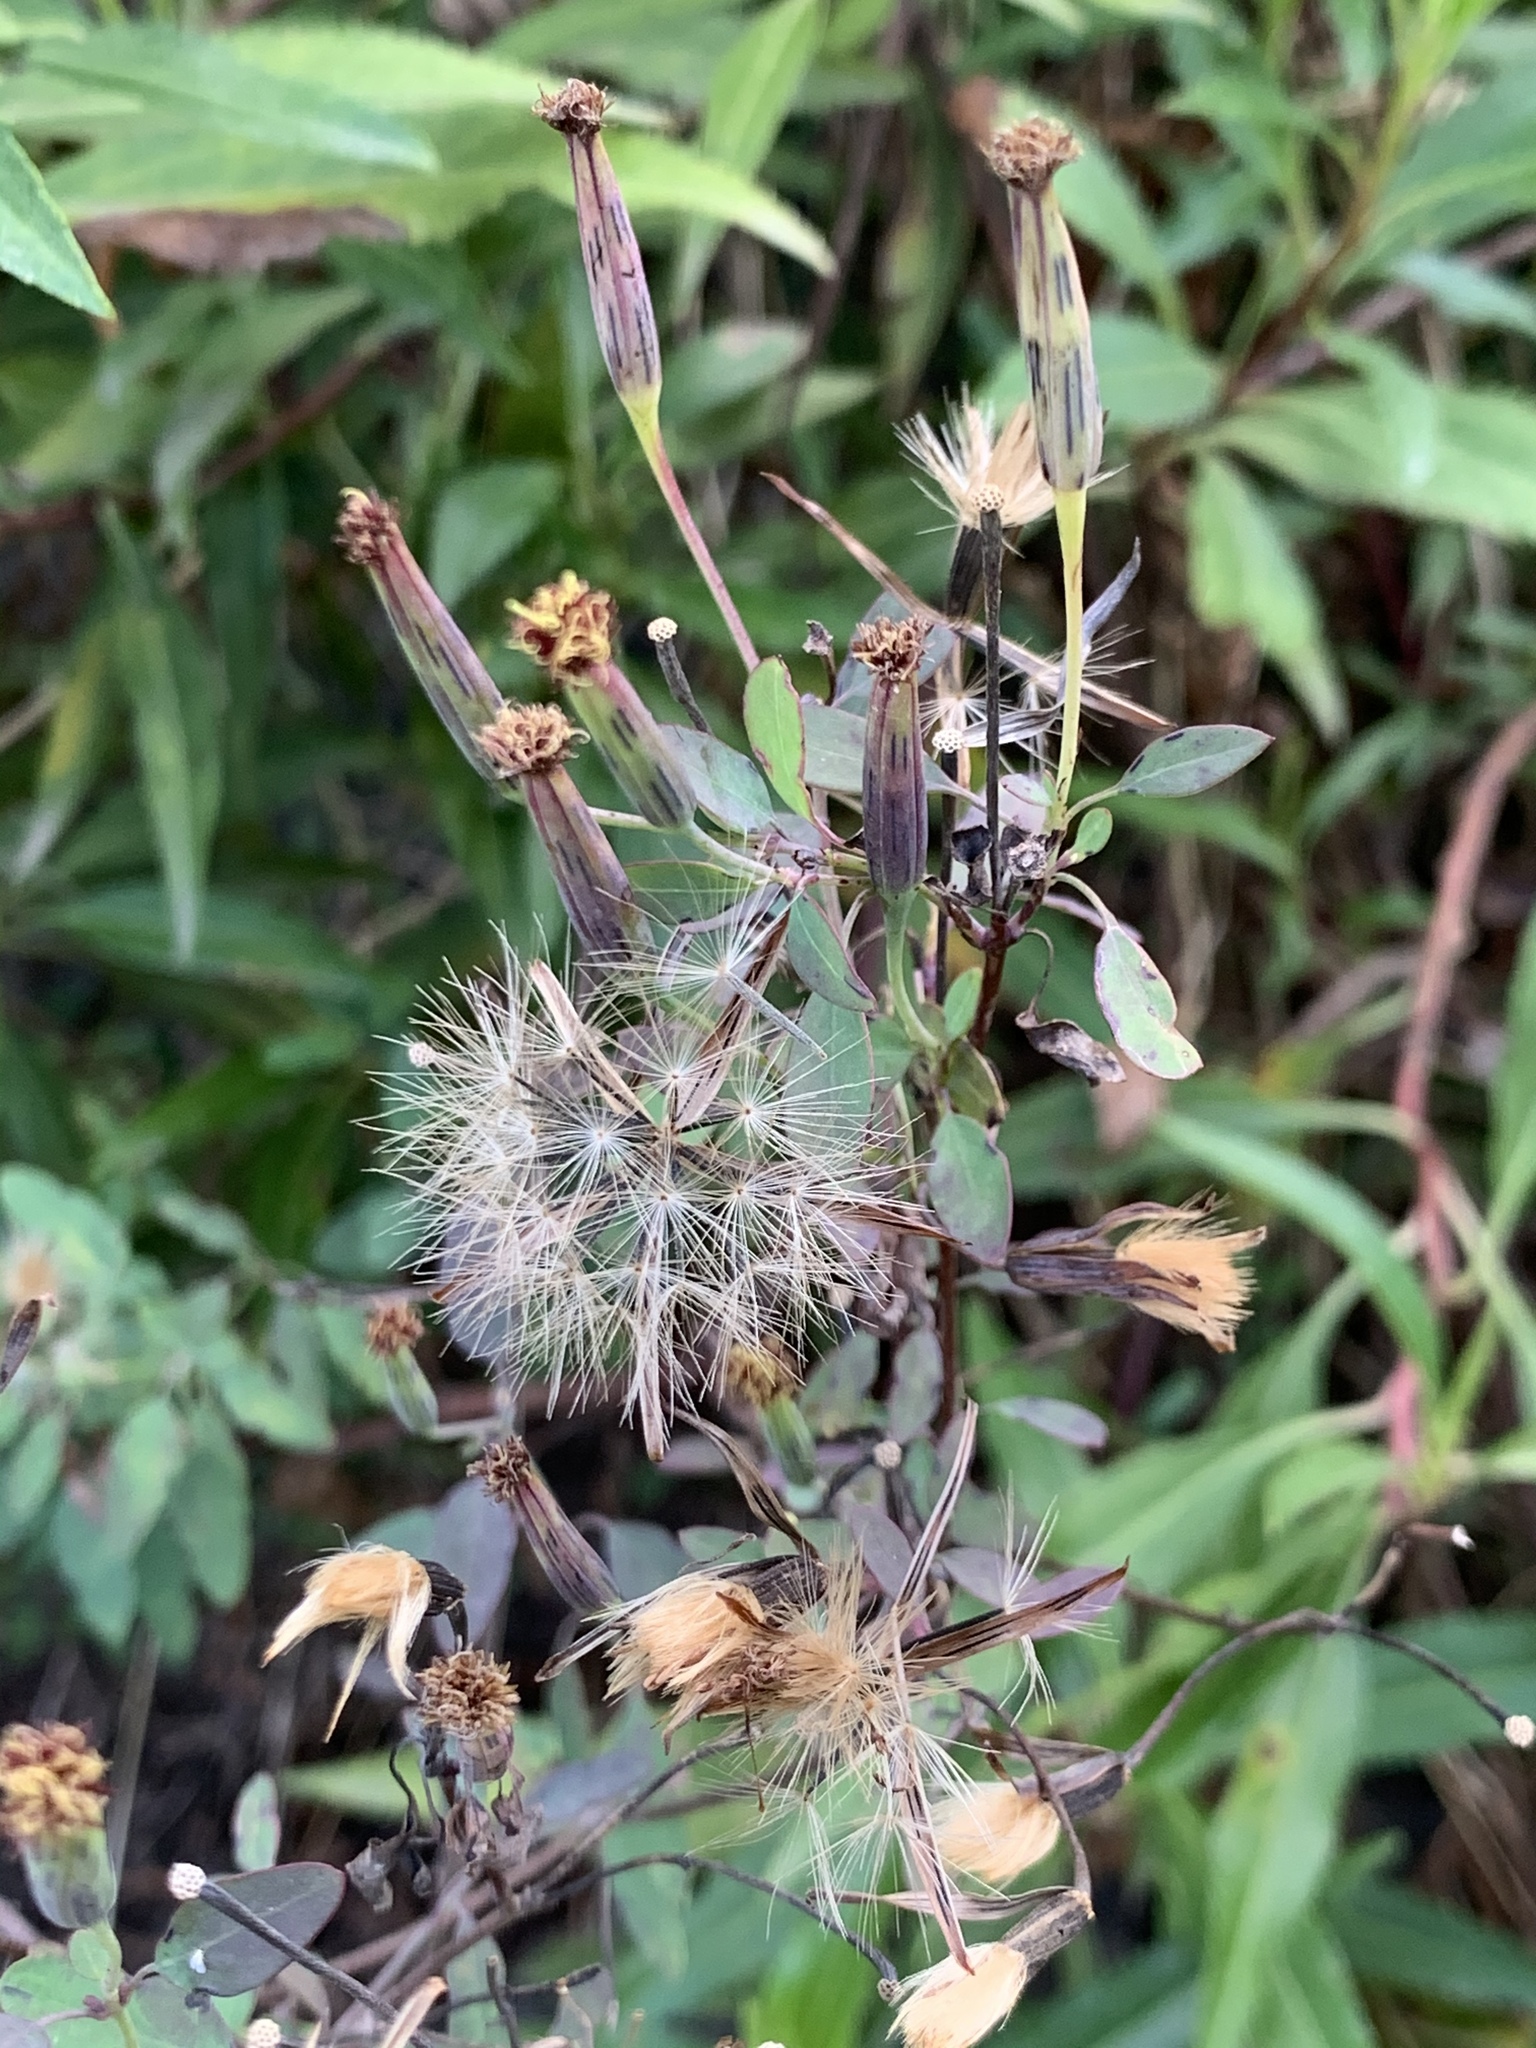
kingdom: Plantae
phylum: Tracheophyta
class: Magnoliopsida
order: Asterales
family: Asteraceae
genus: Porophyllum
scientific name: Porophyllum ruderale
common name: Yerba porosa
